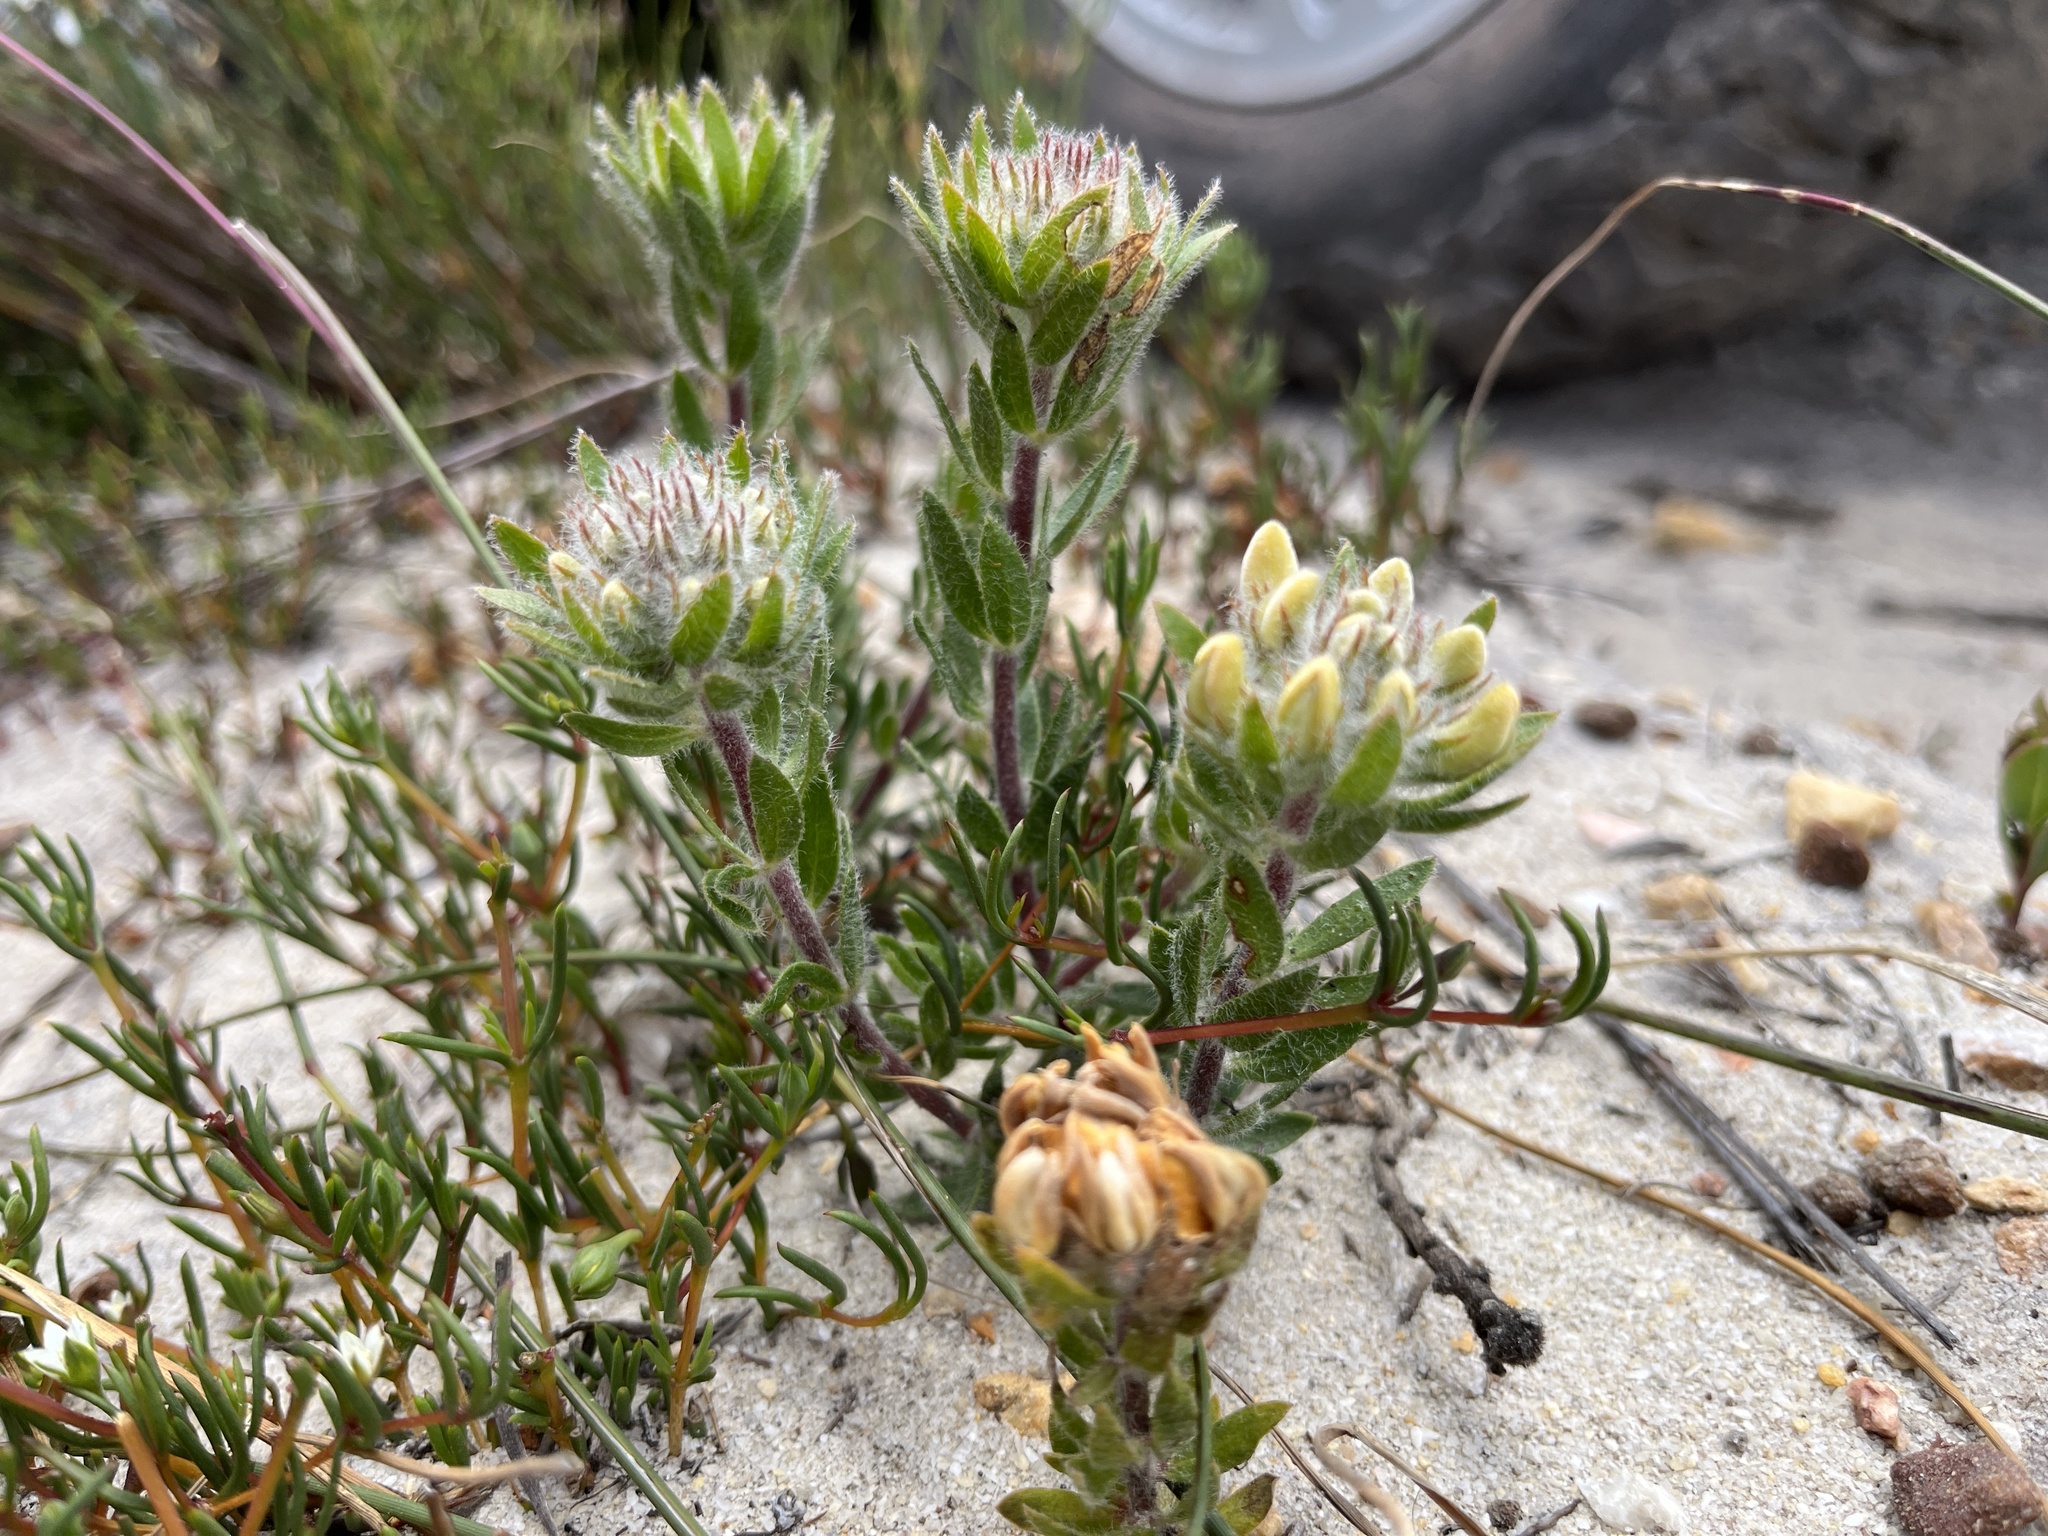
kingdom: Plantae
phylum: Tracheophyta
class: Magnoliopsida
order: Fabales
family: Fabaceae
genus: Aspalathus
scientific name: Aspalathus aspalathoides
